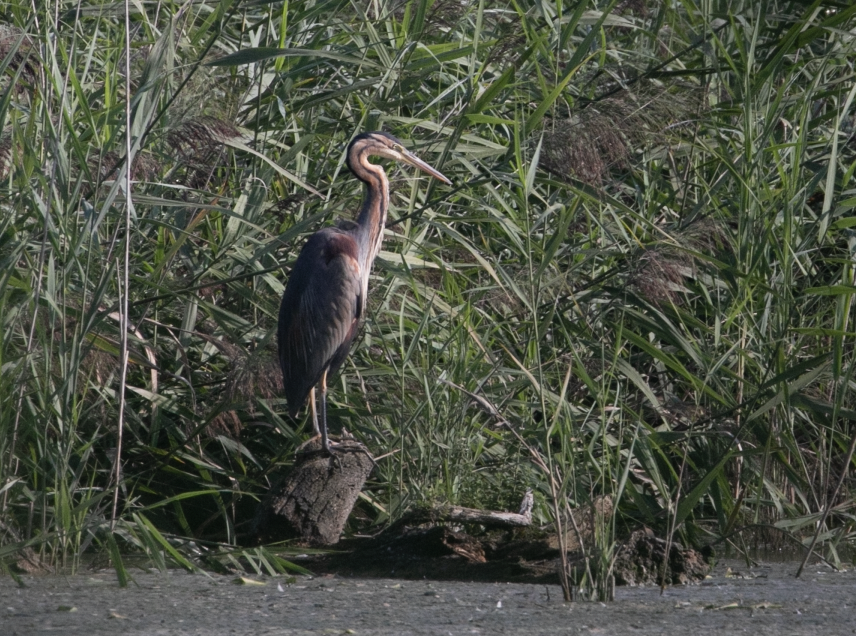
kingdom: Animalia
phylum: Chordata
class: Aves
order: Pelecaniformes
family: Ardeidae
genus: Ardea
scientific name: Ardea purpurea
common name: Purple heron
